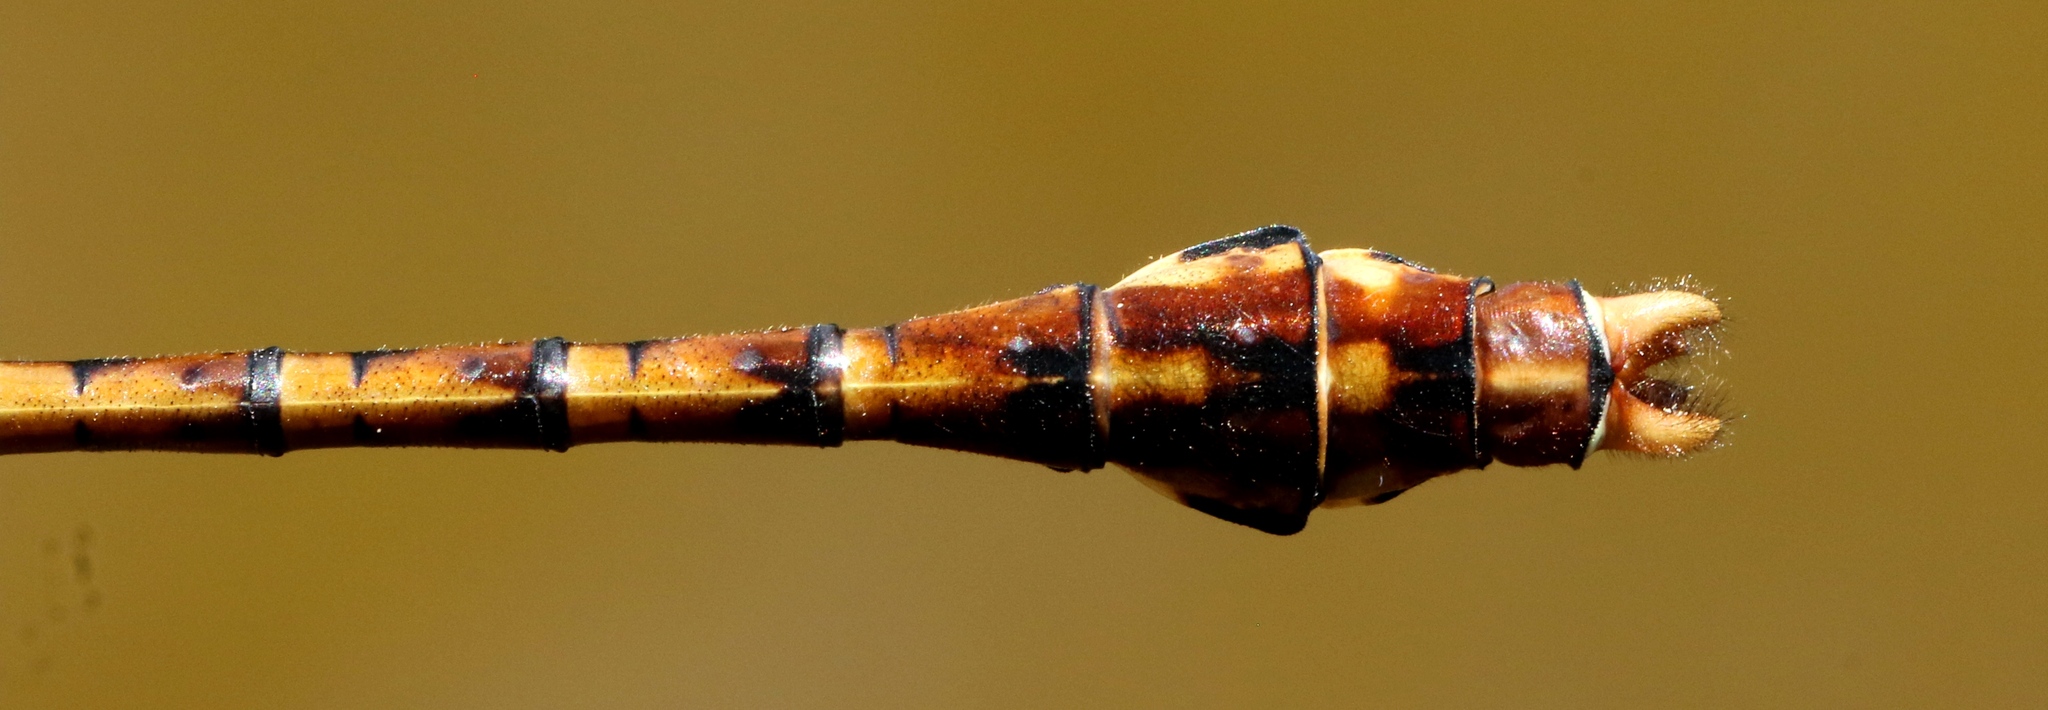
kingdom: Animalia
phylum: Arthropoda
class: Insecta
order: Odonata
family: Gomphidae
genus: Ophiogomphus
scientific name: Ophiogomphus rupinsulensis
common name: Rusty snaketail
